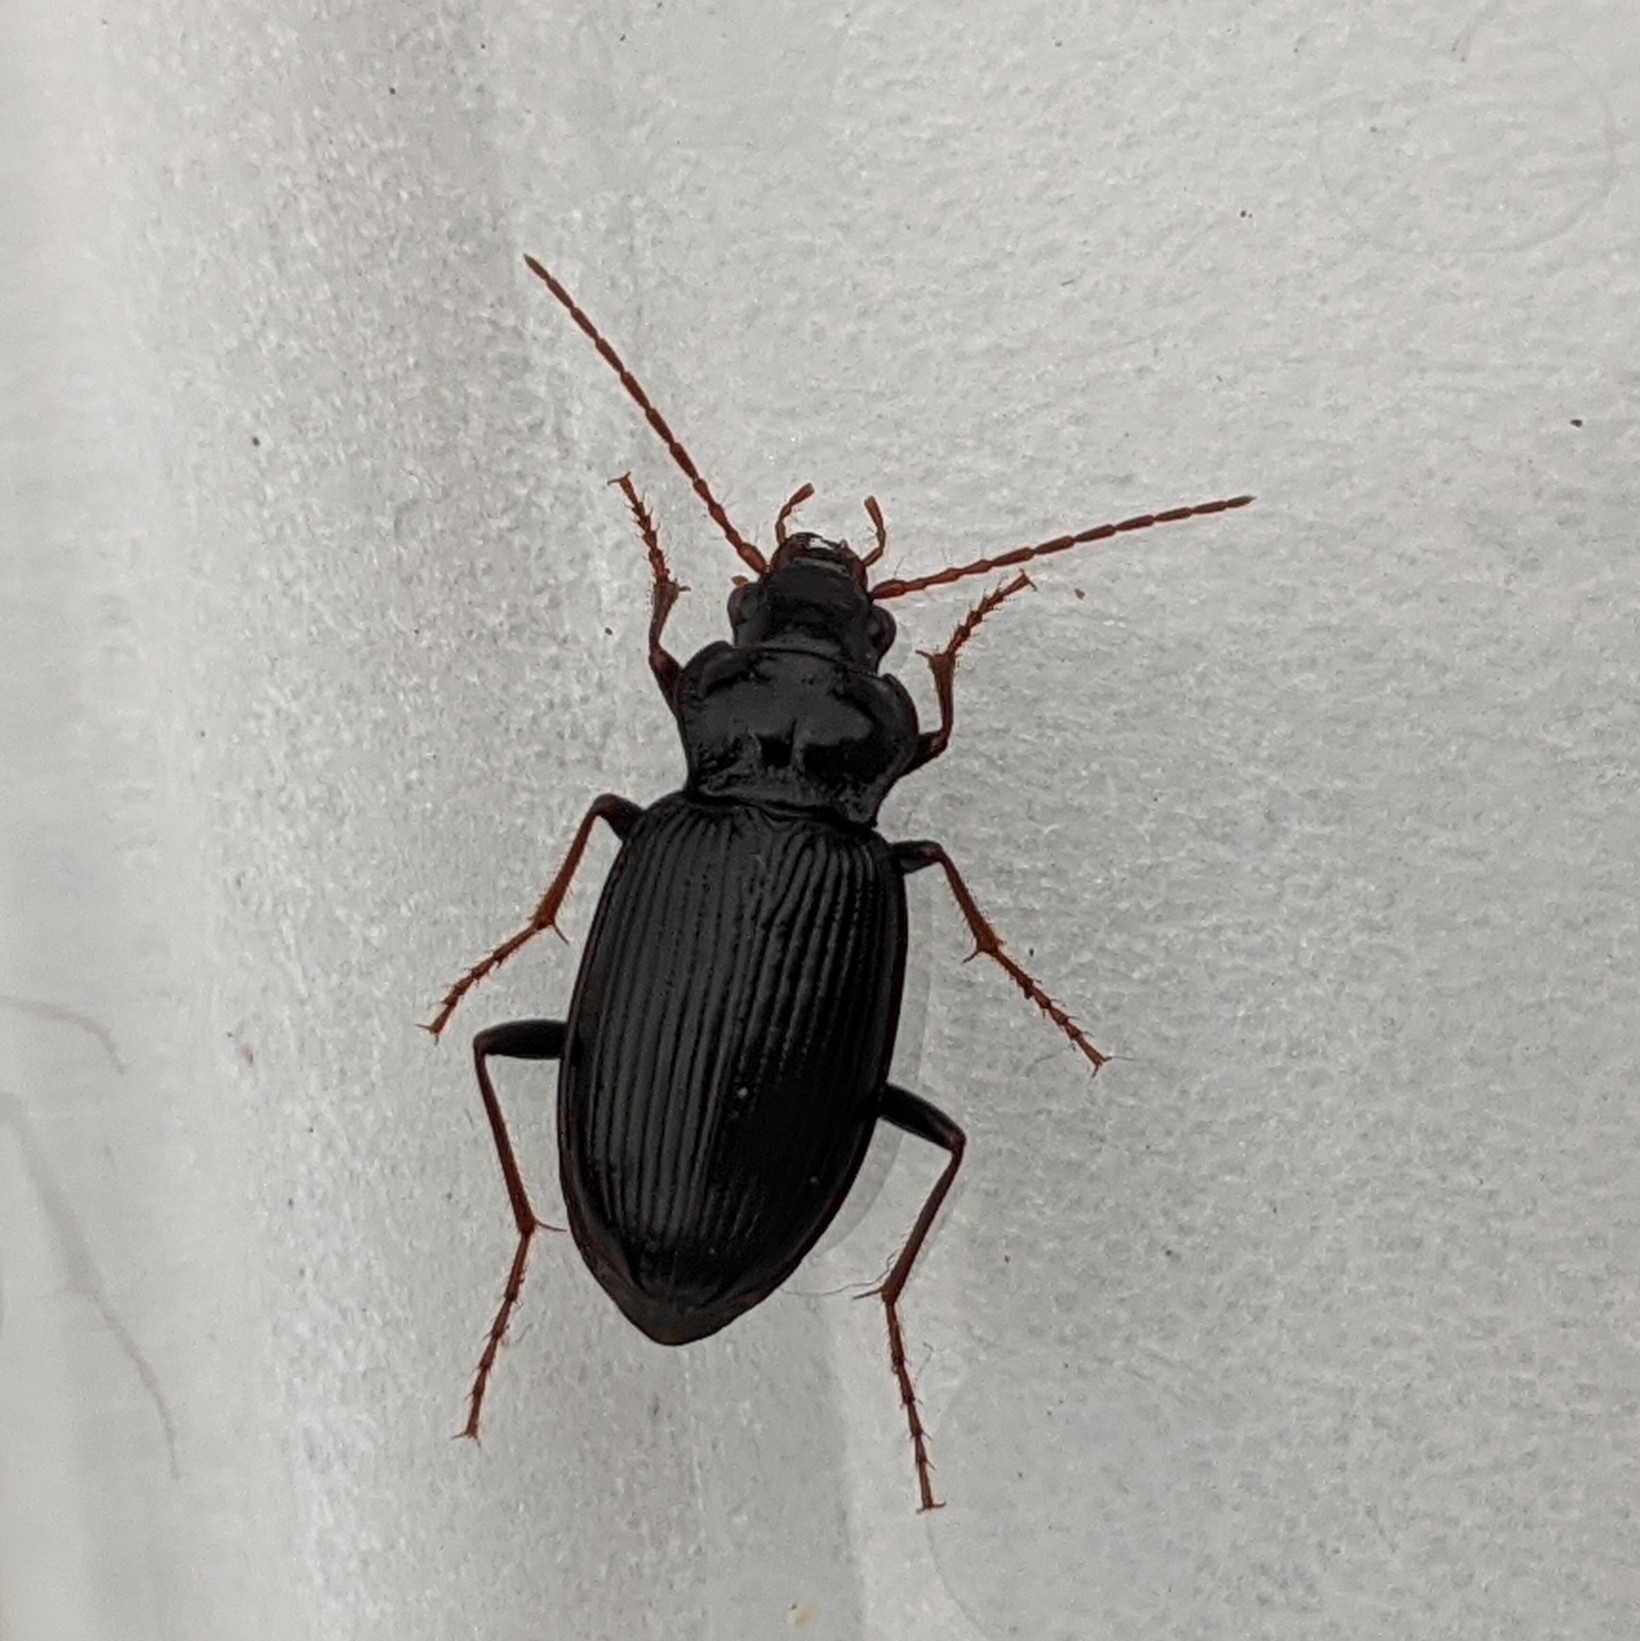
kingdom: Animalia
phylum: Arthropoda
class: Insecta
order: Coleoptera
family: Carabidae
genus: Nebria
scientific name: Nebria brevicollis
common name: Short-necked gazelle beetle
